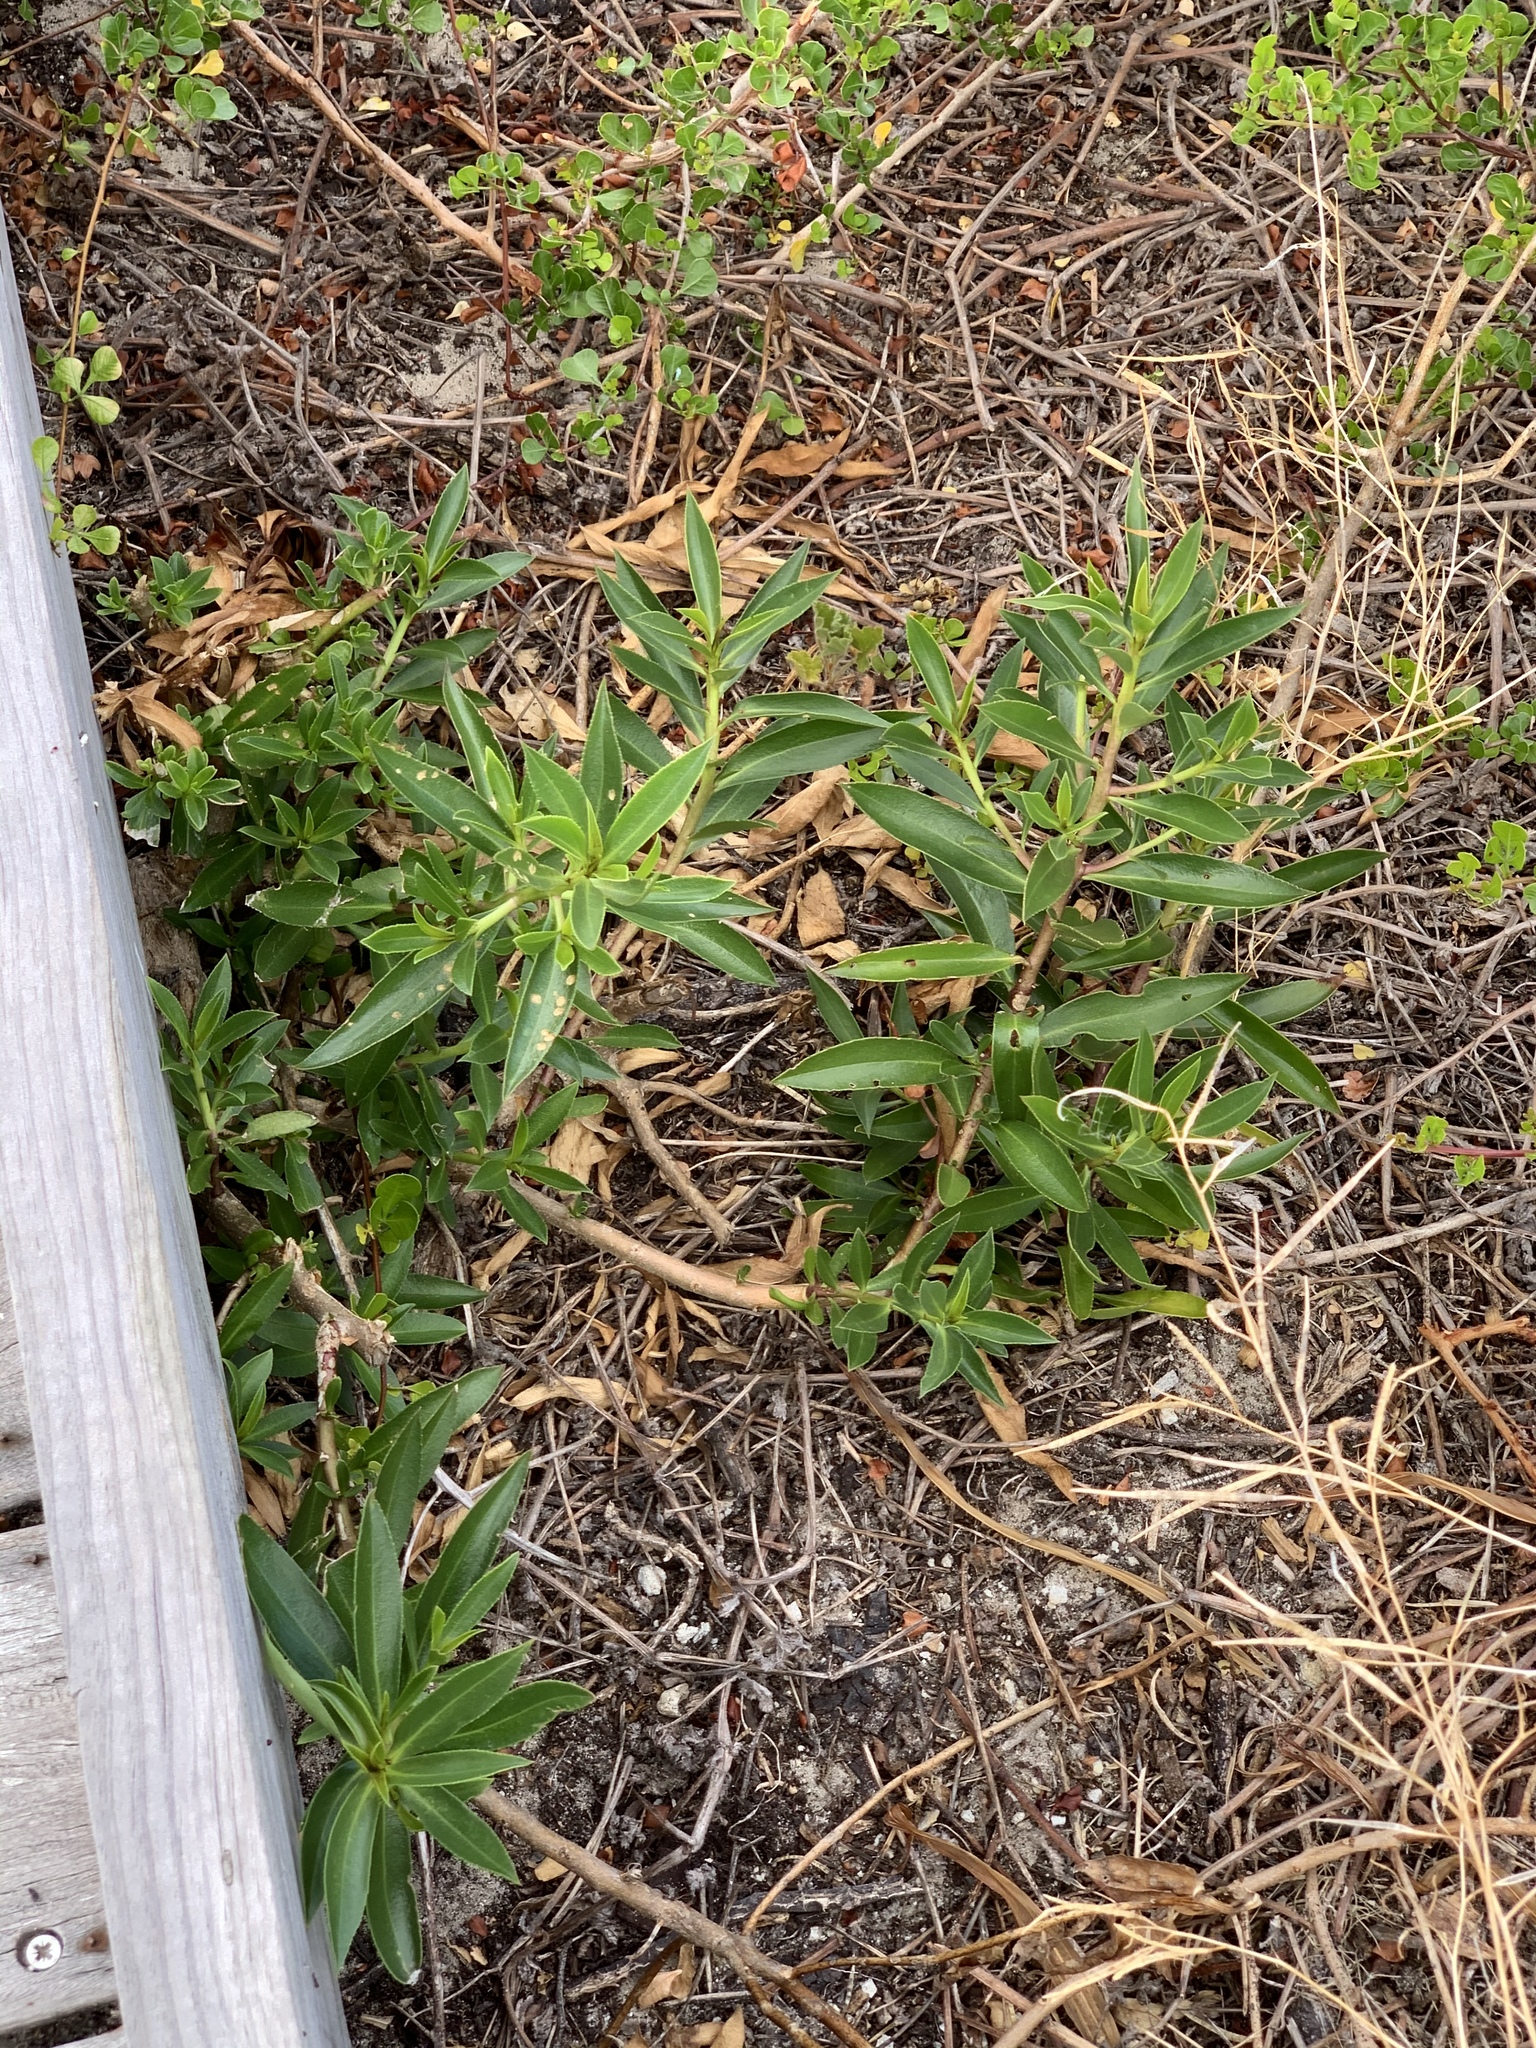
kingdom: Plantae
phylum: Tracheophyta
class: Magnoliopsida
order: Lamiales
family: Scrophulariaceae
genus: Myoporum
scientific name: Myoporum insulare
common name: Common boobialla
